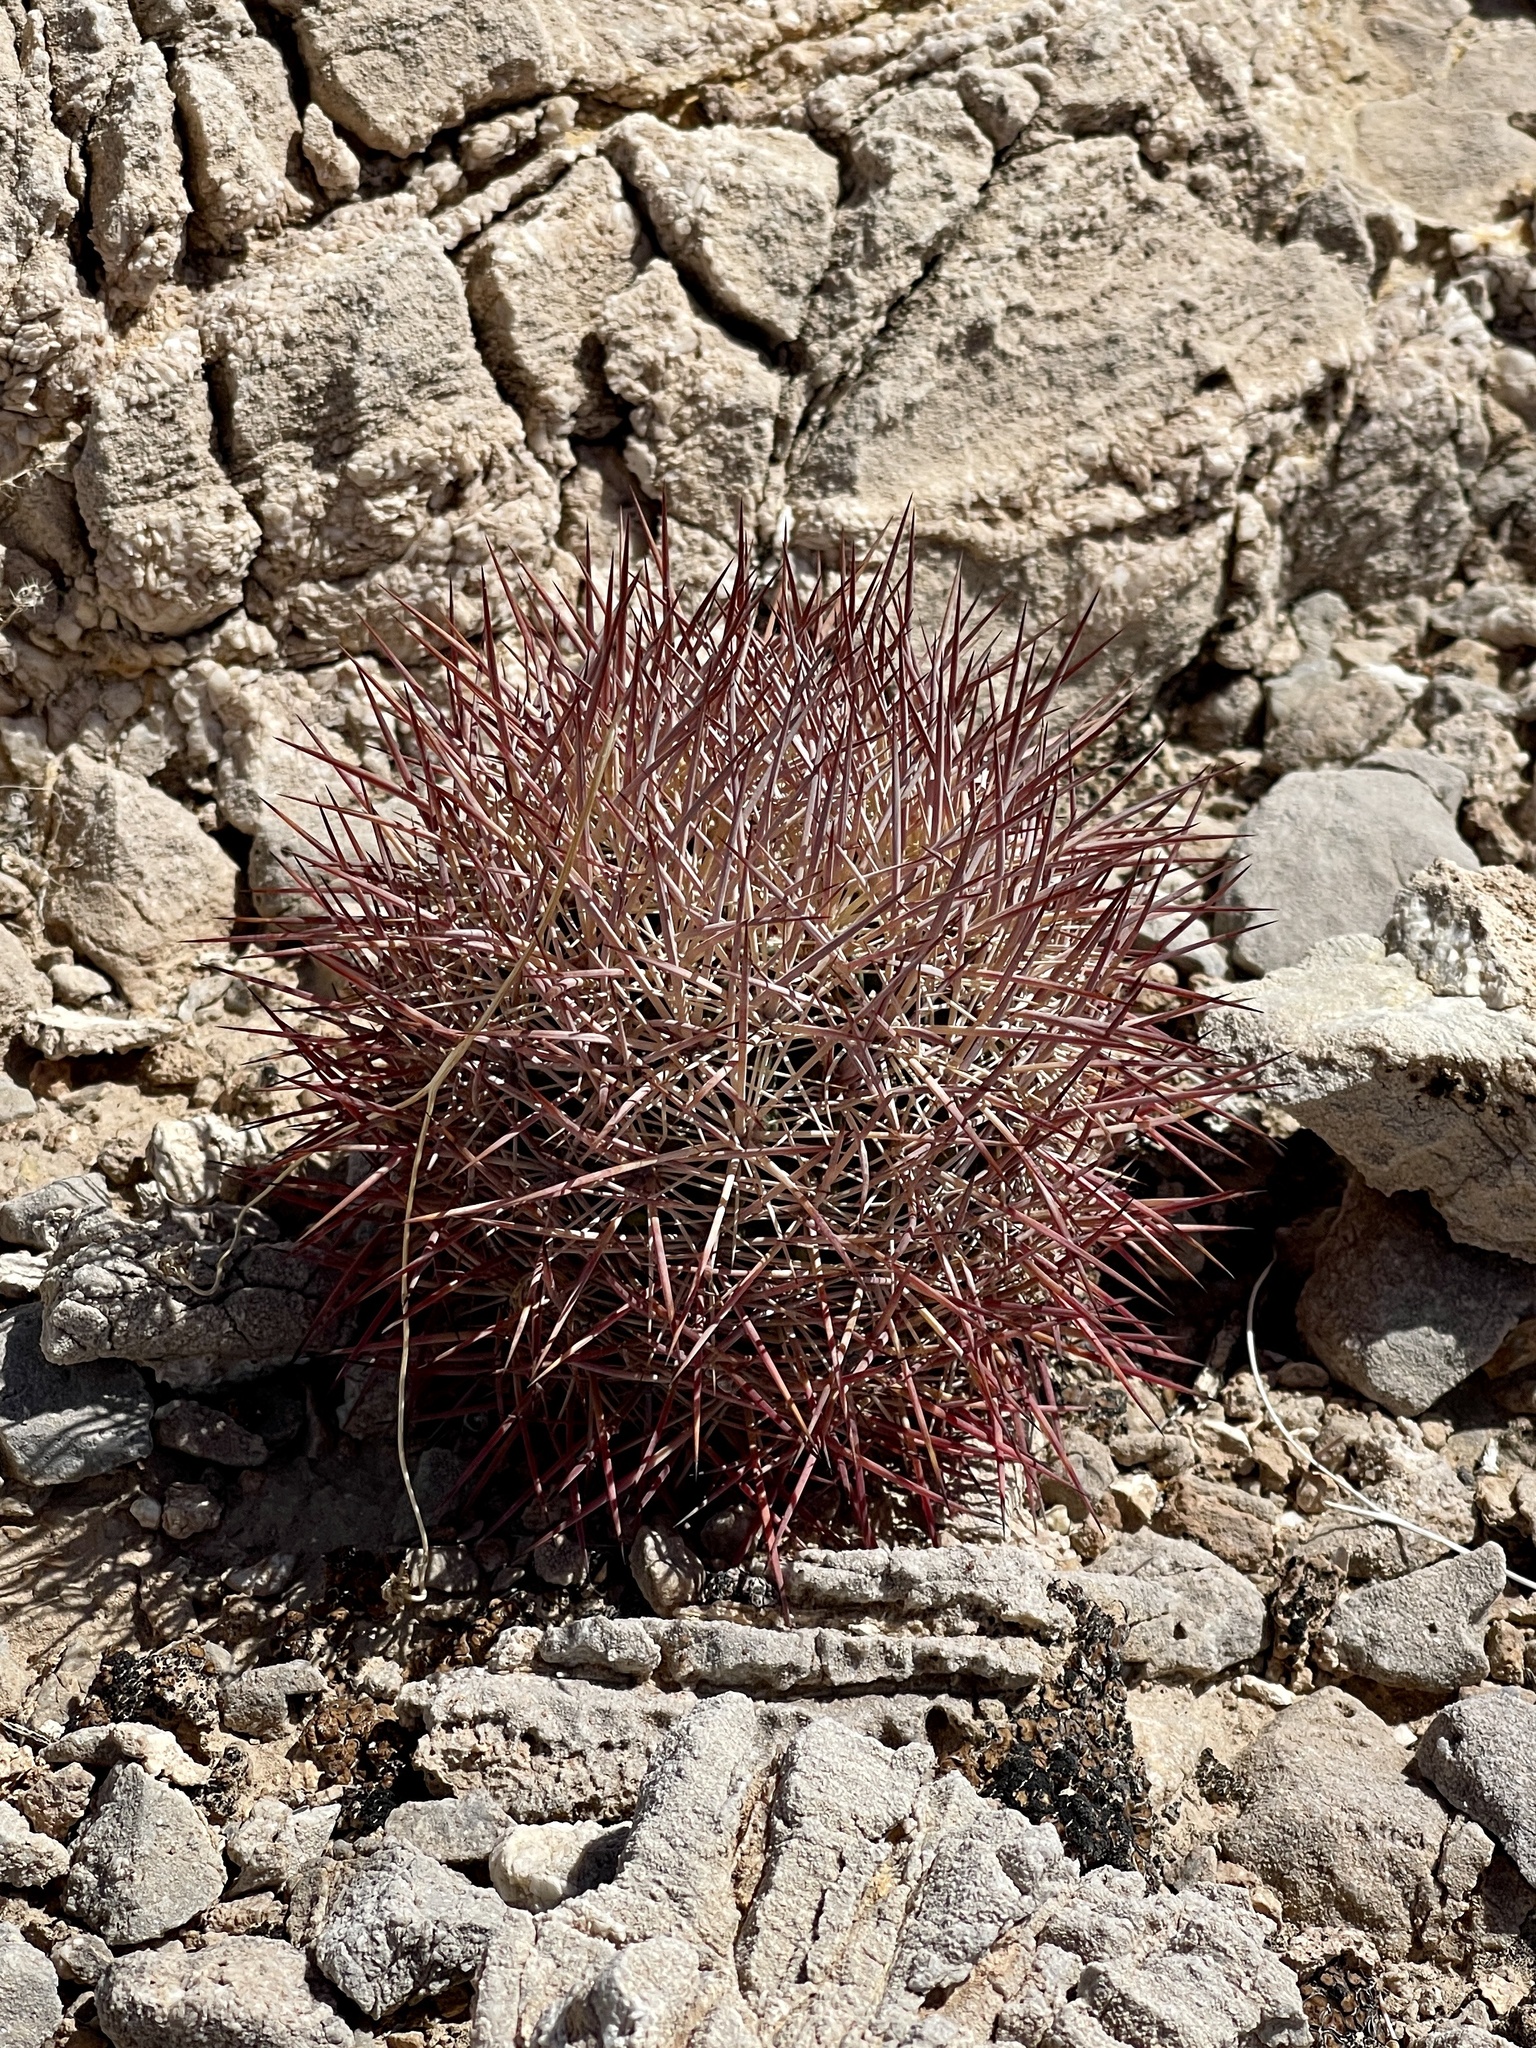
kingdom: Plantae
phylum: Tracheophyta
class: Magnoliopsida
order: Caryophyllales
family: Cactaceae
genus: Sclerocactus
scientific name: Sclerocactus johnsonii
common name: Eight-spine fishhook cactus
